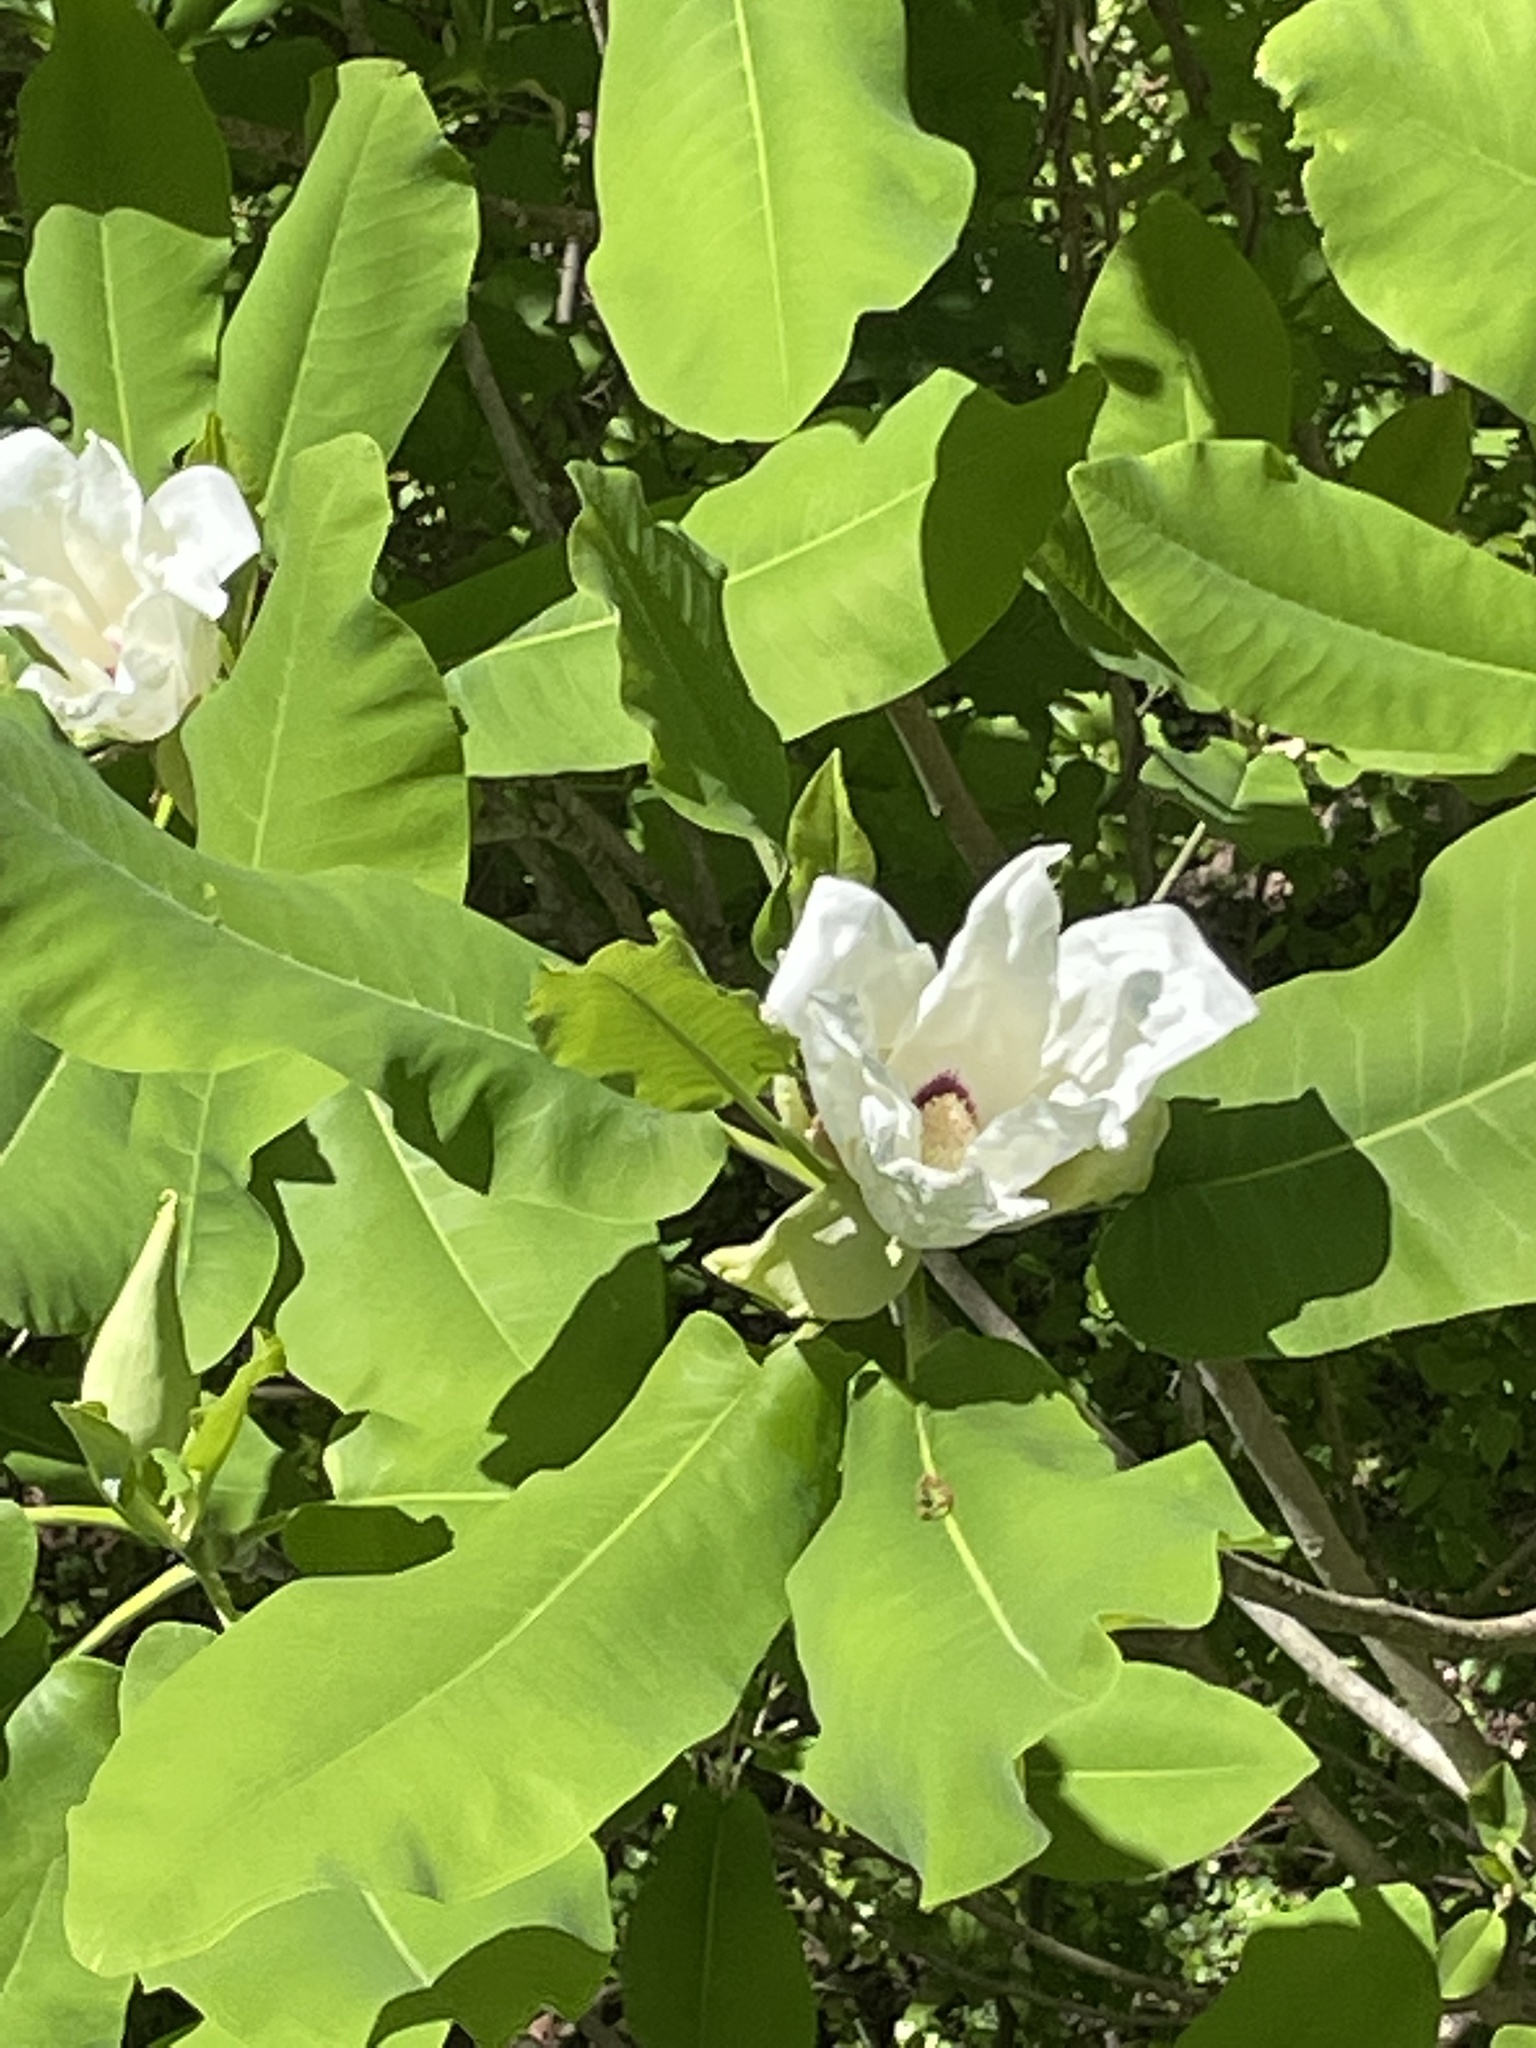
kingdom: Plantae
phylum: Tracheophyta
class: Magnoliopsida
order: Magnoliales
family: Magnoliaceae
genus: Magnolia
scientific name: Magnolia macrophylla
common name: Big-leaf magnolia
